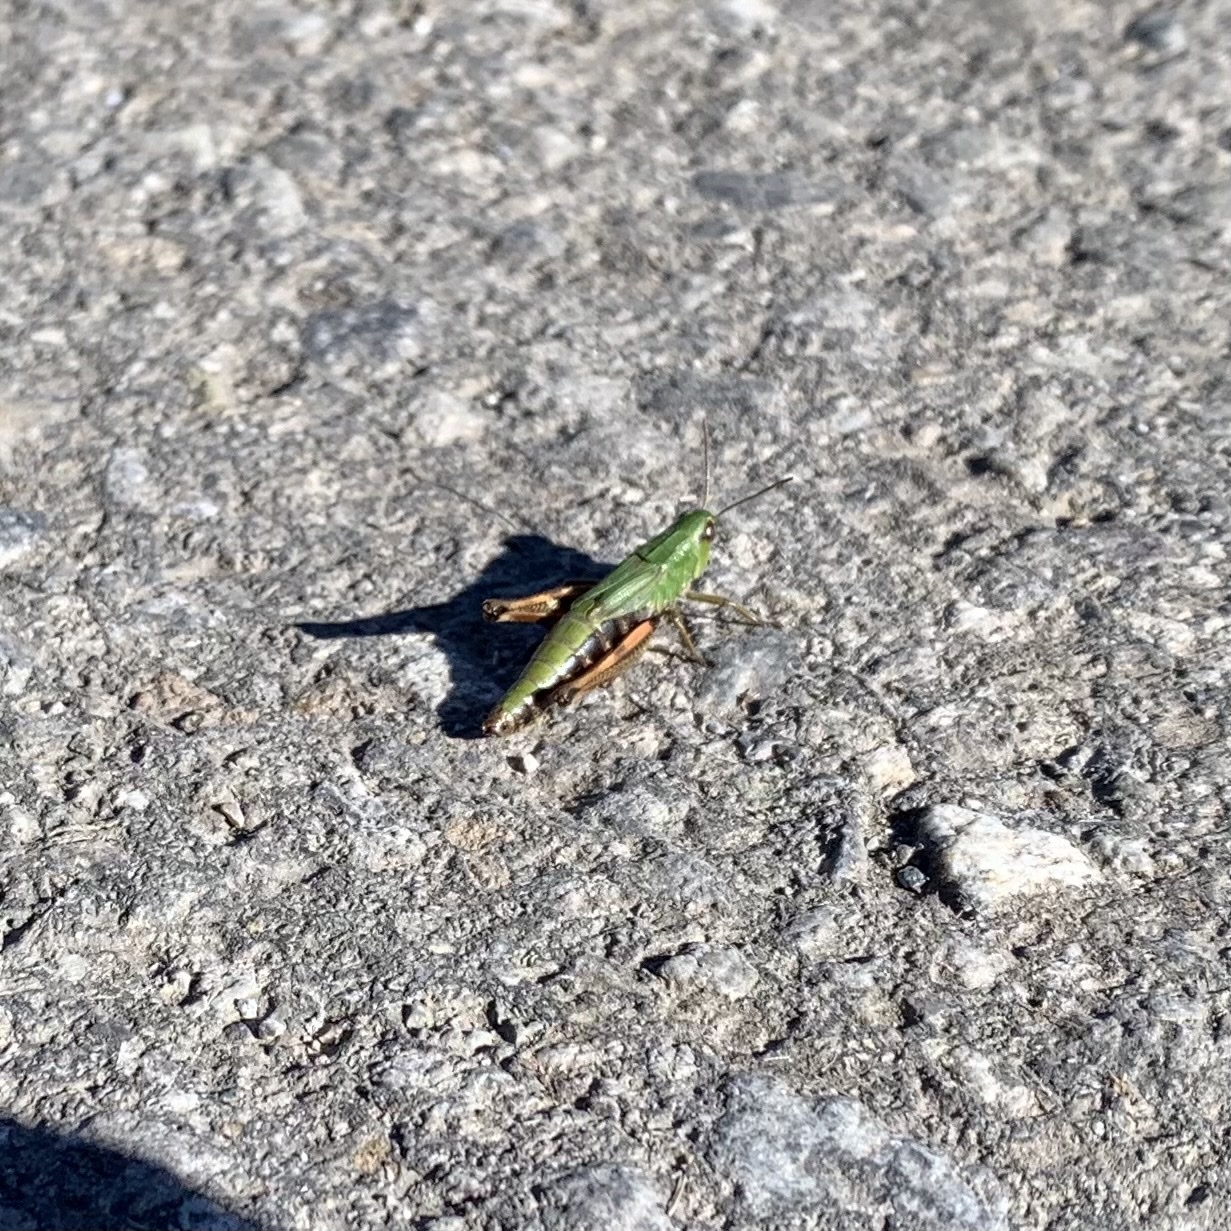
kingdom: Animalia
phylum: Arthropoda
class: Insecta
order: Orthoptera
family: Acrididae
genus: Pseudochorthippus
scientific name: Pseudochorthippus parallelus
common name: Meadow grasshopper
